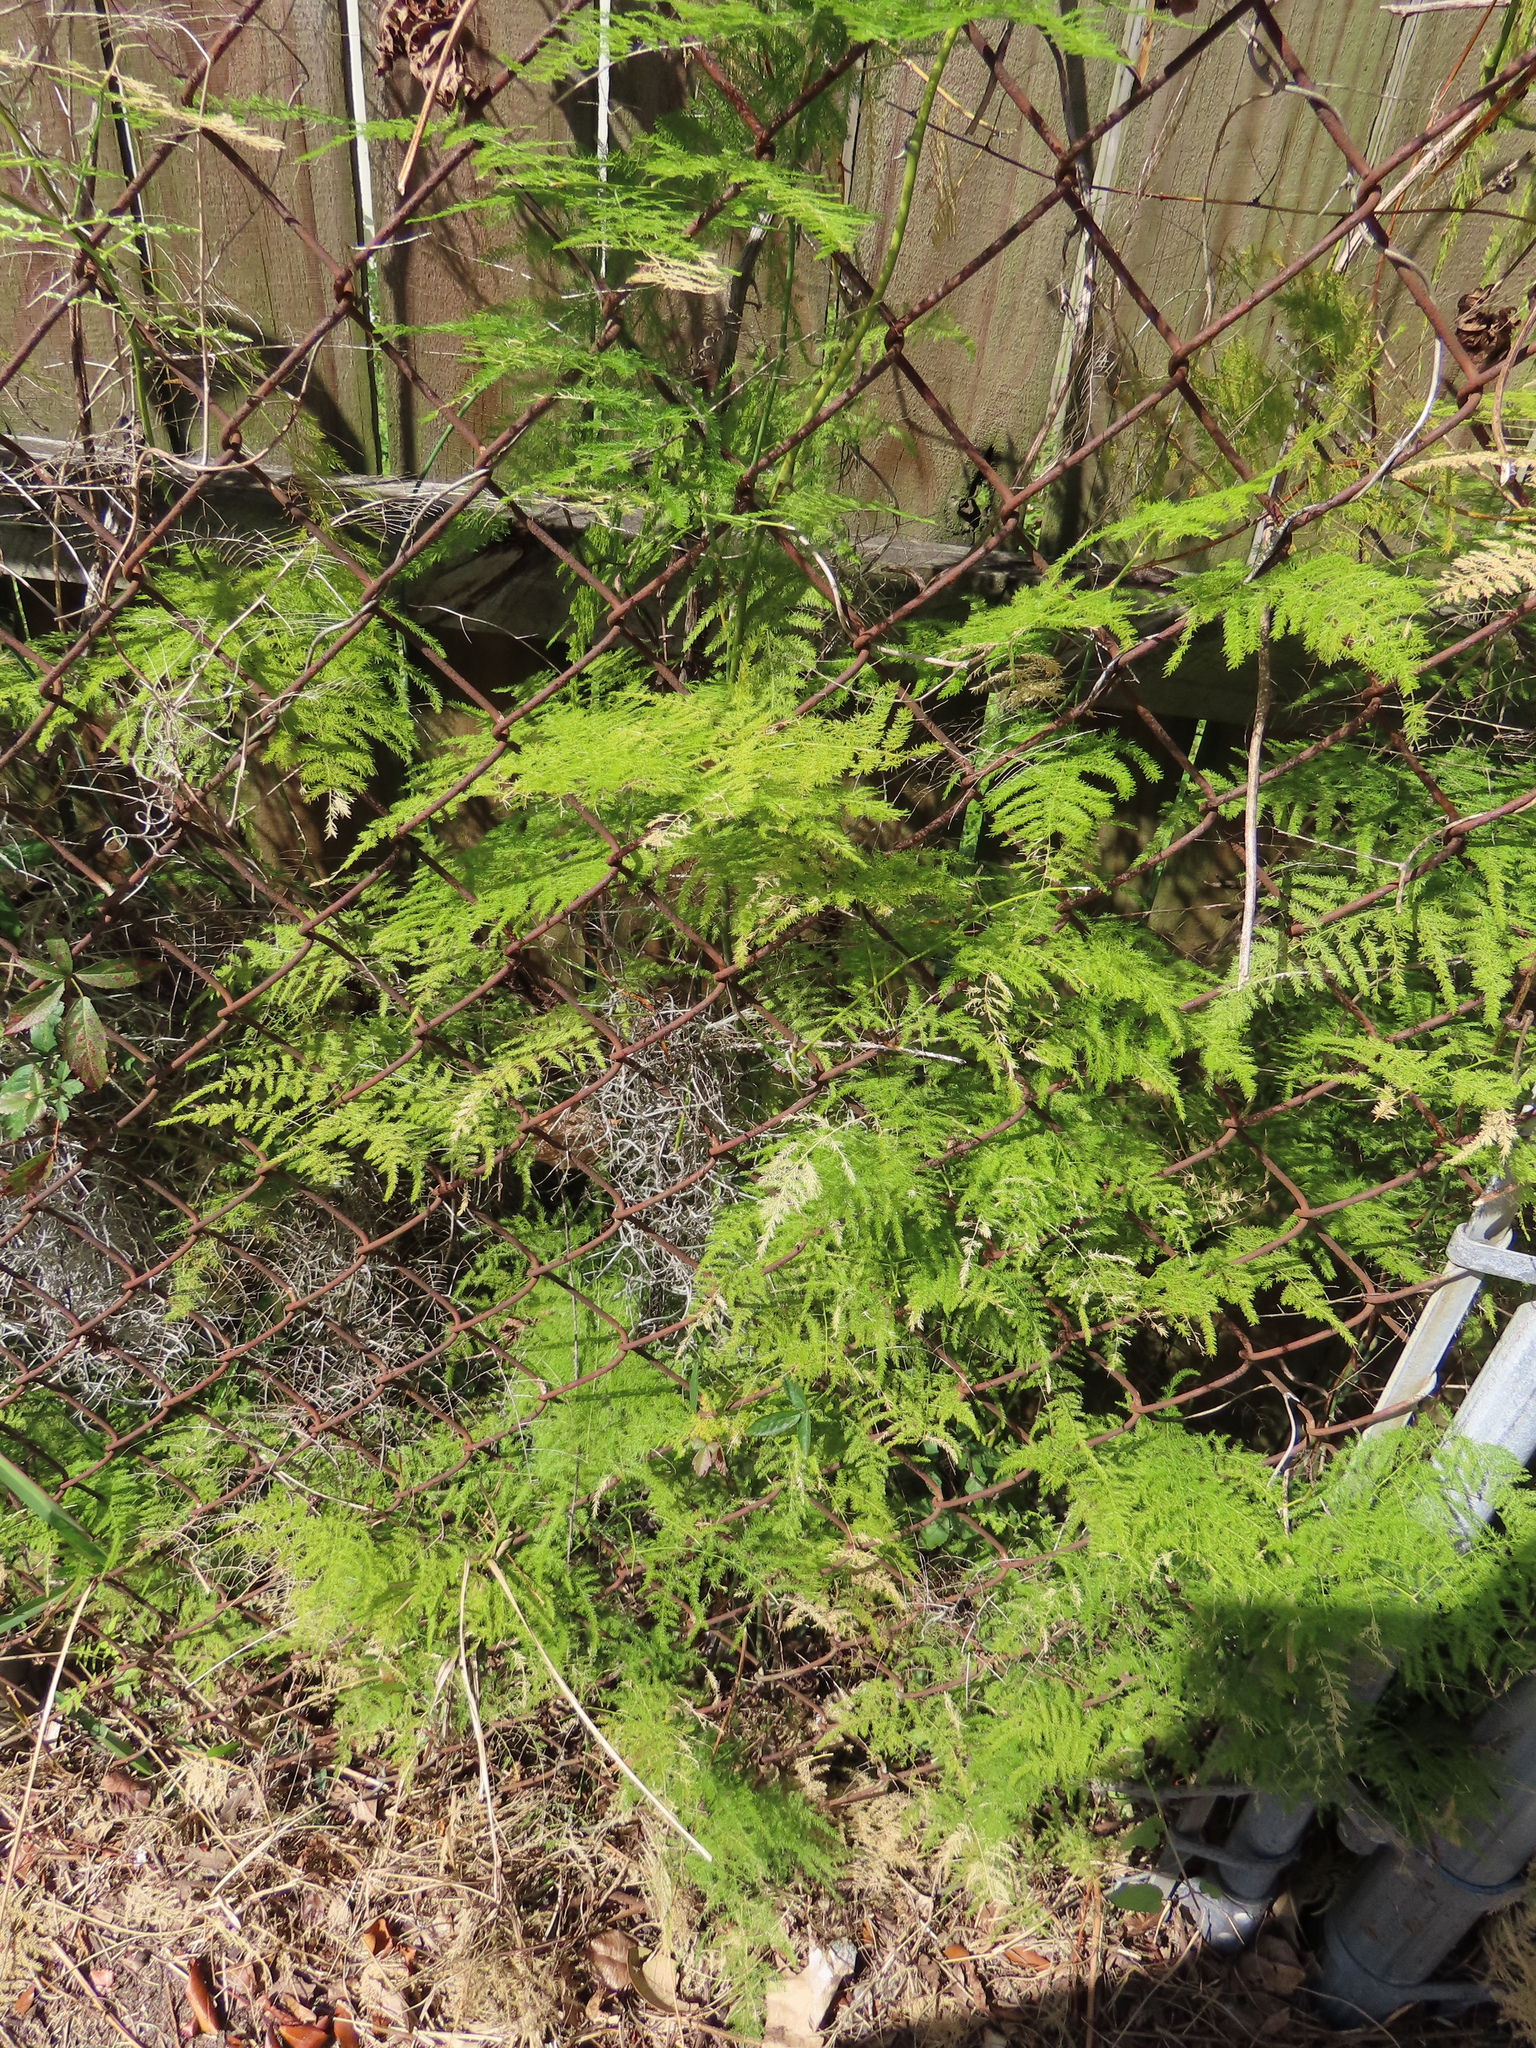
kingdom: Plantae
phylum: Tracheophyta
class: Liliopsida
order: Asparagales
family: Asparagaceae
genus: Asparagus
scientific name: Asparagus setaceus
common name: Common asparagus fern
